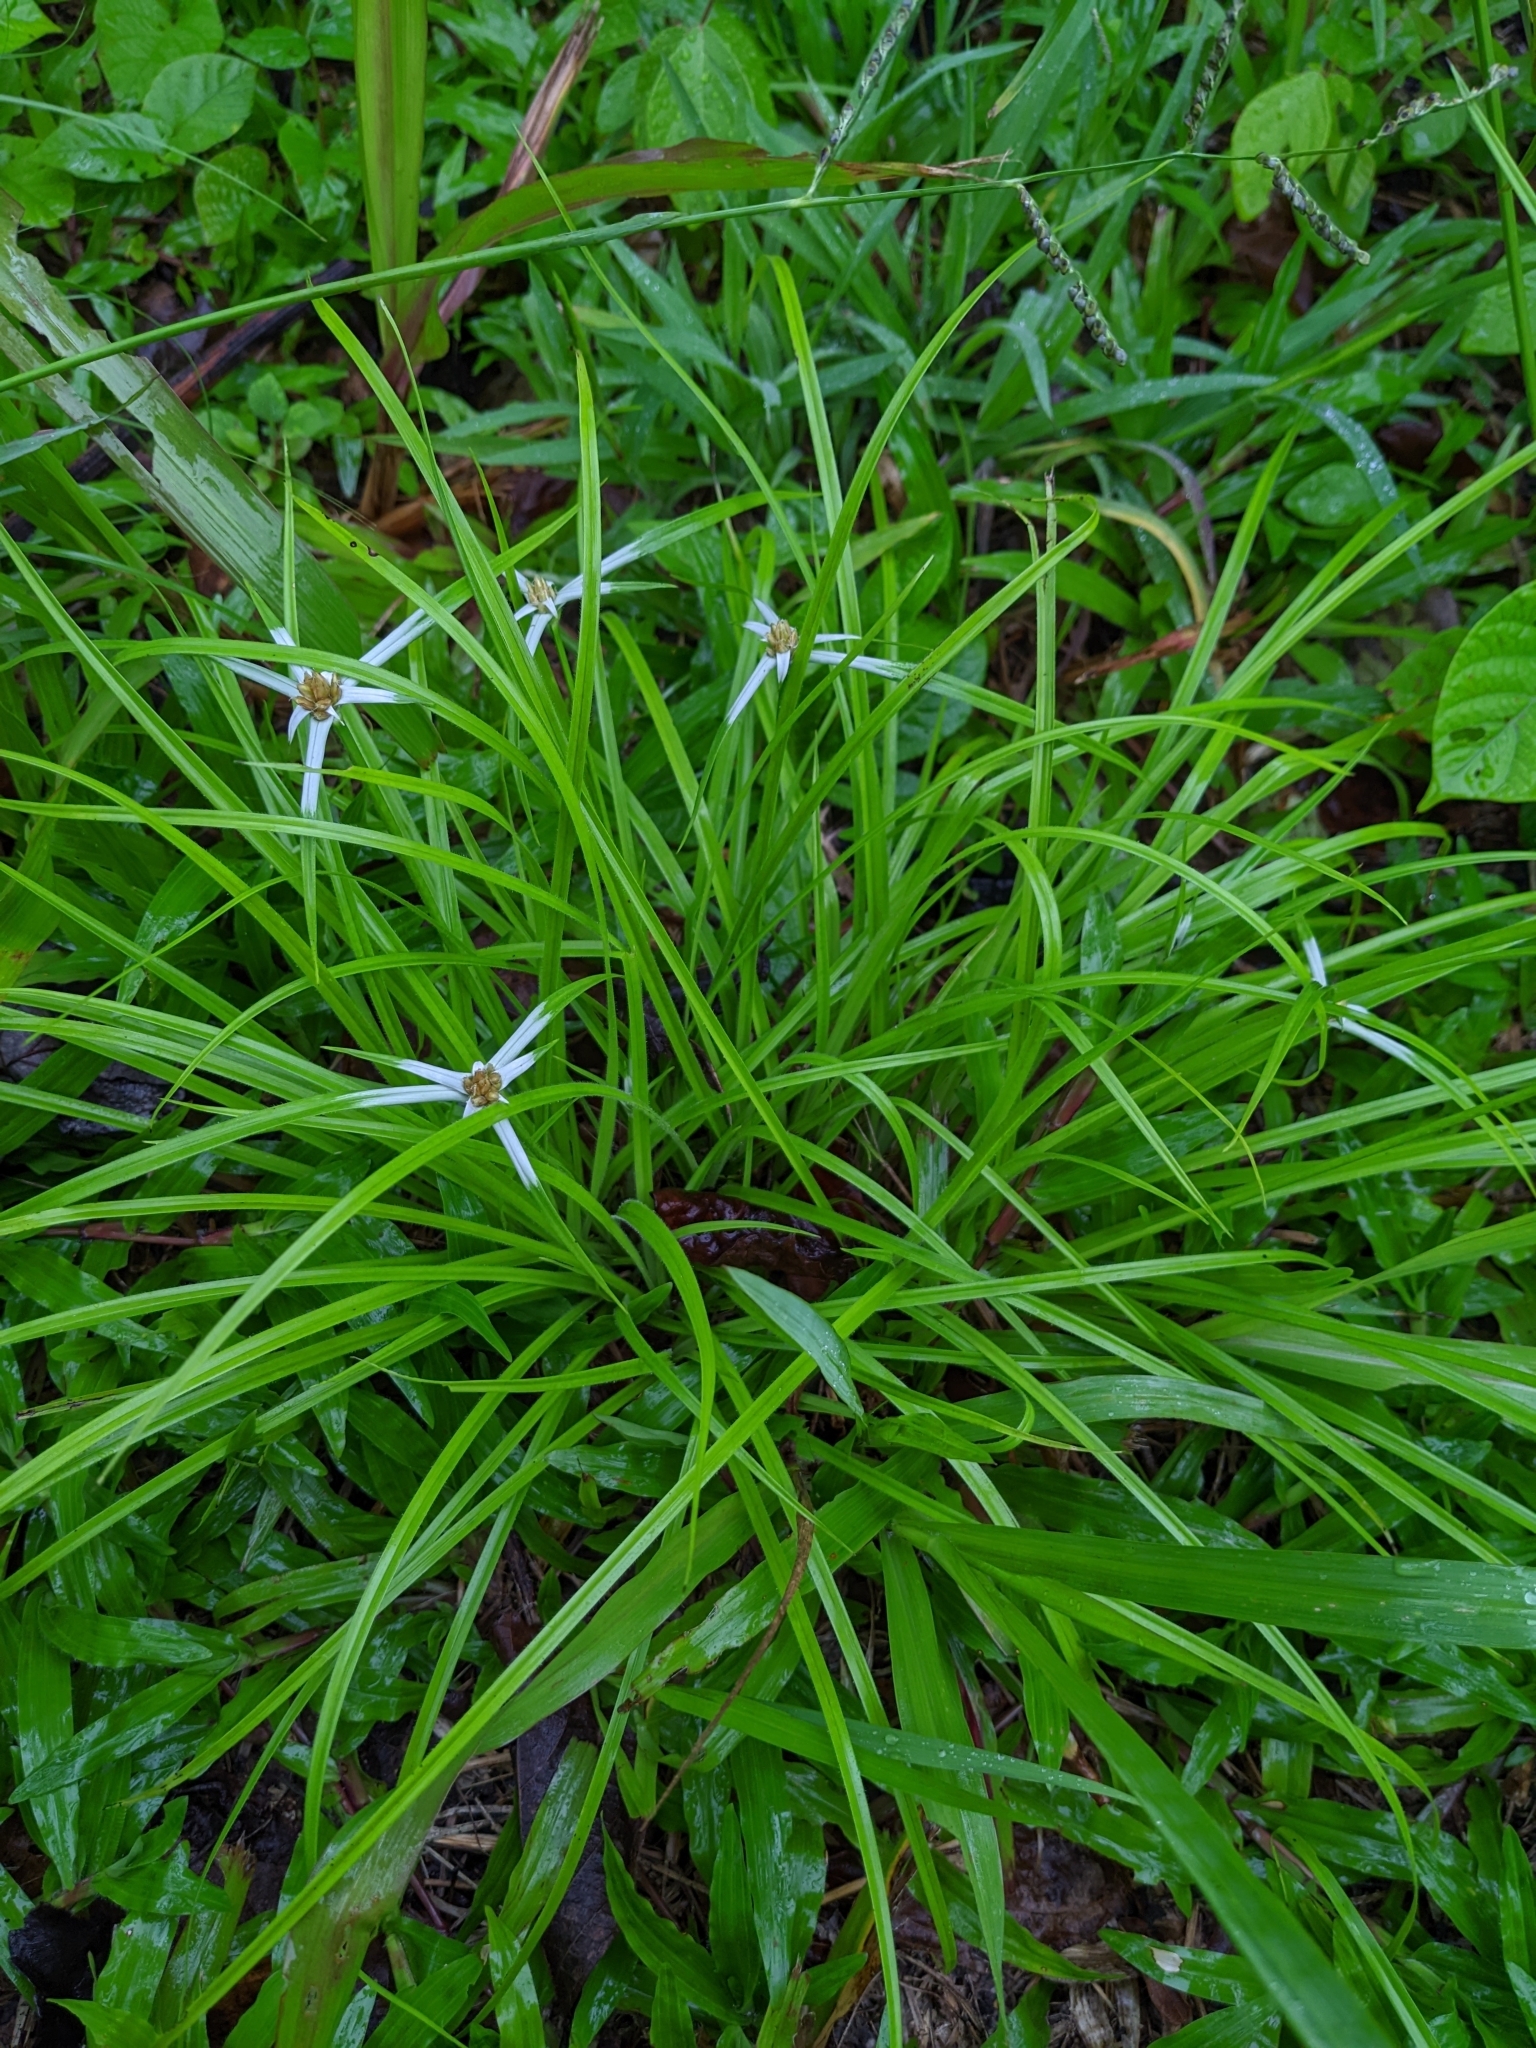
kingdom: Plantae
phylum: Tracheophyta
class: Liliopsida
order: Poales
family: Cyperaceae
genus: Rhynchospora
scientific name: Rhynchospora pura
